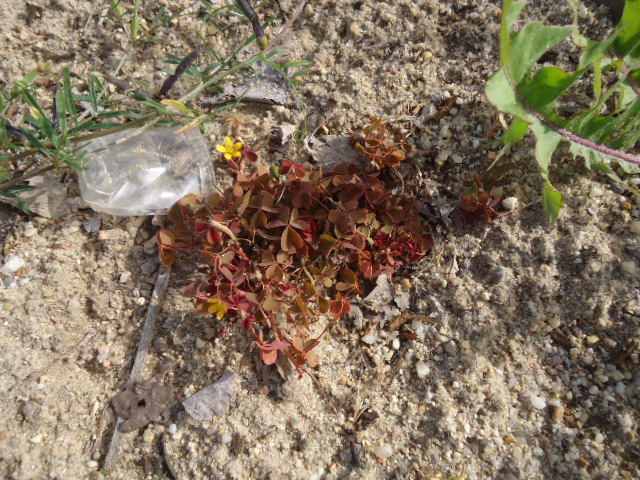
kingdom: Plantae
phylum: Tracheophyta
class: Magnoliopsida
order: Oxalidales
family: Oxalidaceae
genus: Oxalis
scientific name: Oxalis corniculata
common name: Procumbent yellow-sorrel
